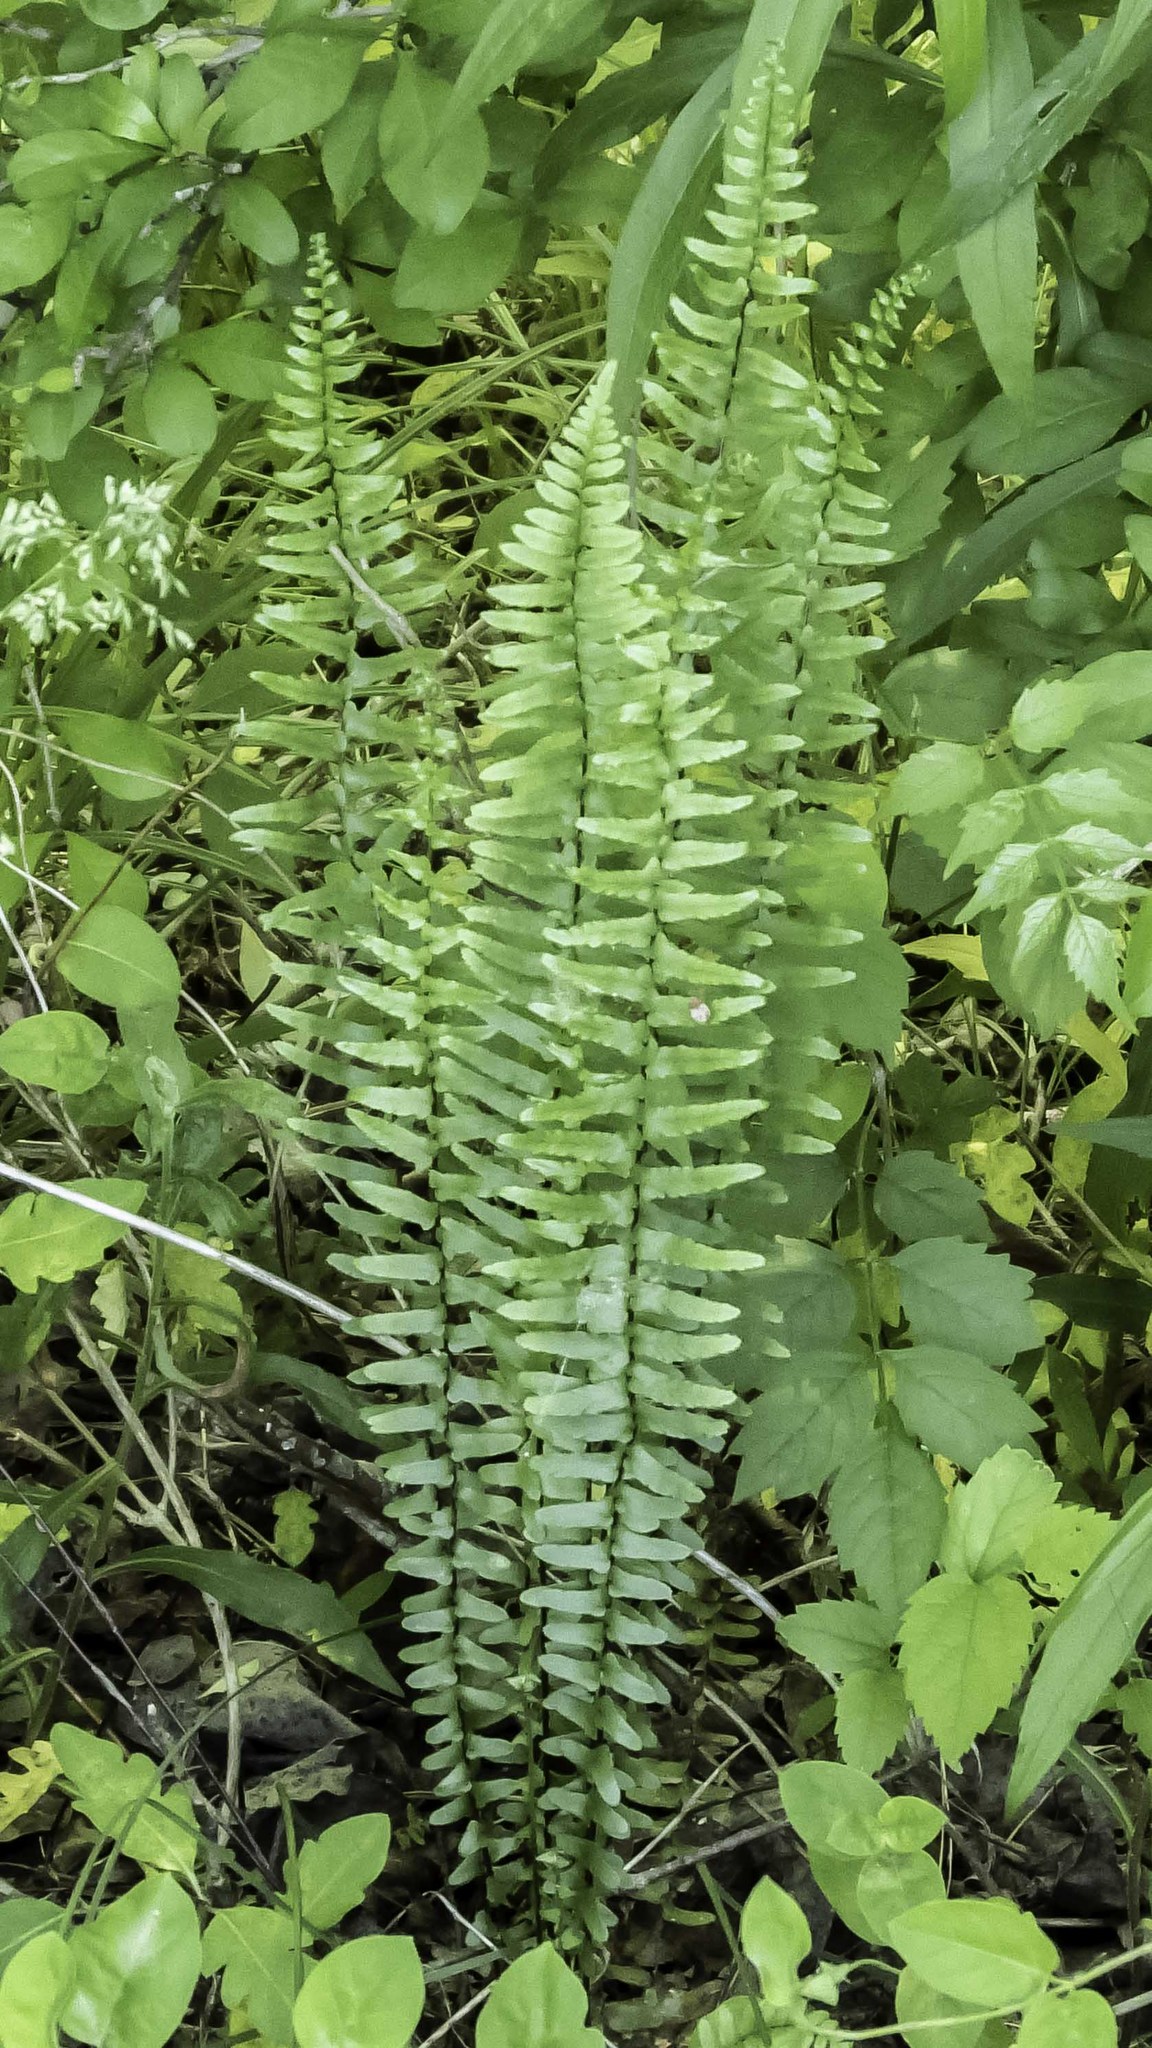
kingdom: Plantae
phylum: Tracheophyta
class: Polypodiopsida
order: Polypodiales
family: Aspleniaceae
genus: Asplenium
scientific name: Asplenium platyneuron
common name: Ebony spleenwort
